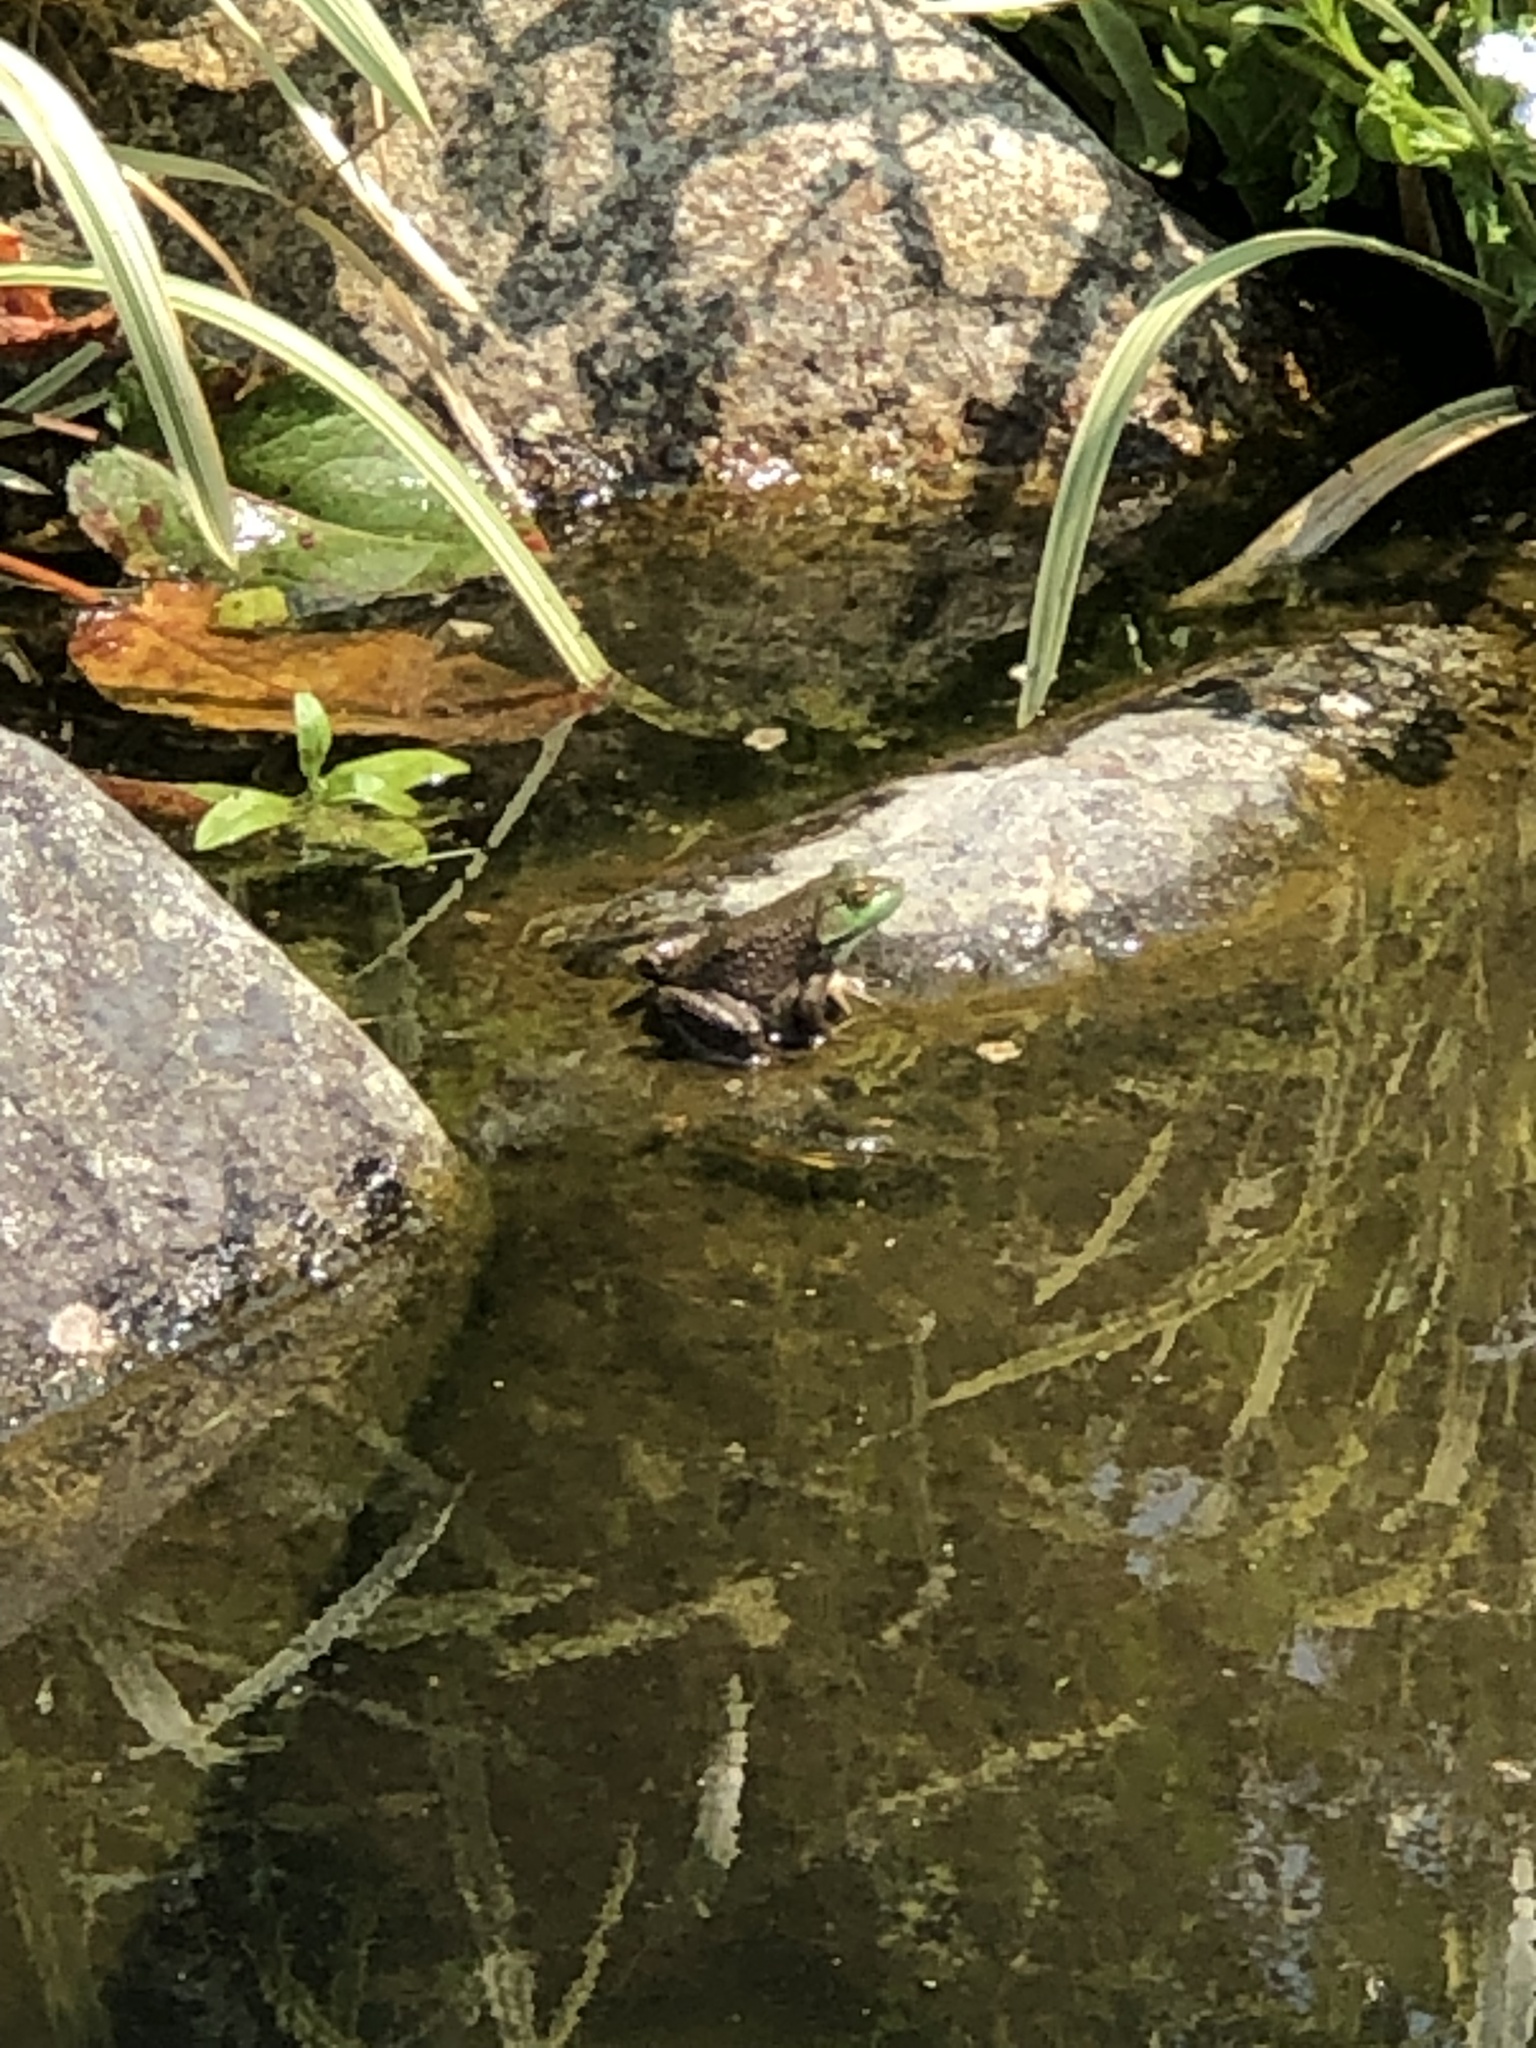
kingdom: Animalia
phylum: Chordata
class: Amphibia
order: Anura
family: Ranidae
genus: Lithobates
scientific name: Lithobates catesbeianus
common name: American bullfrog
